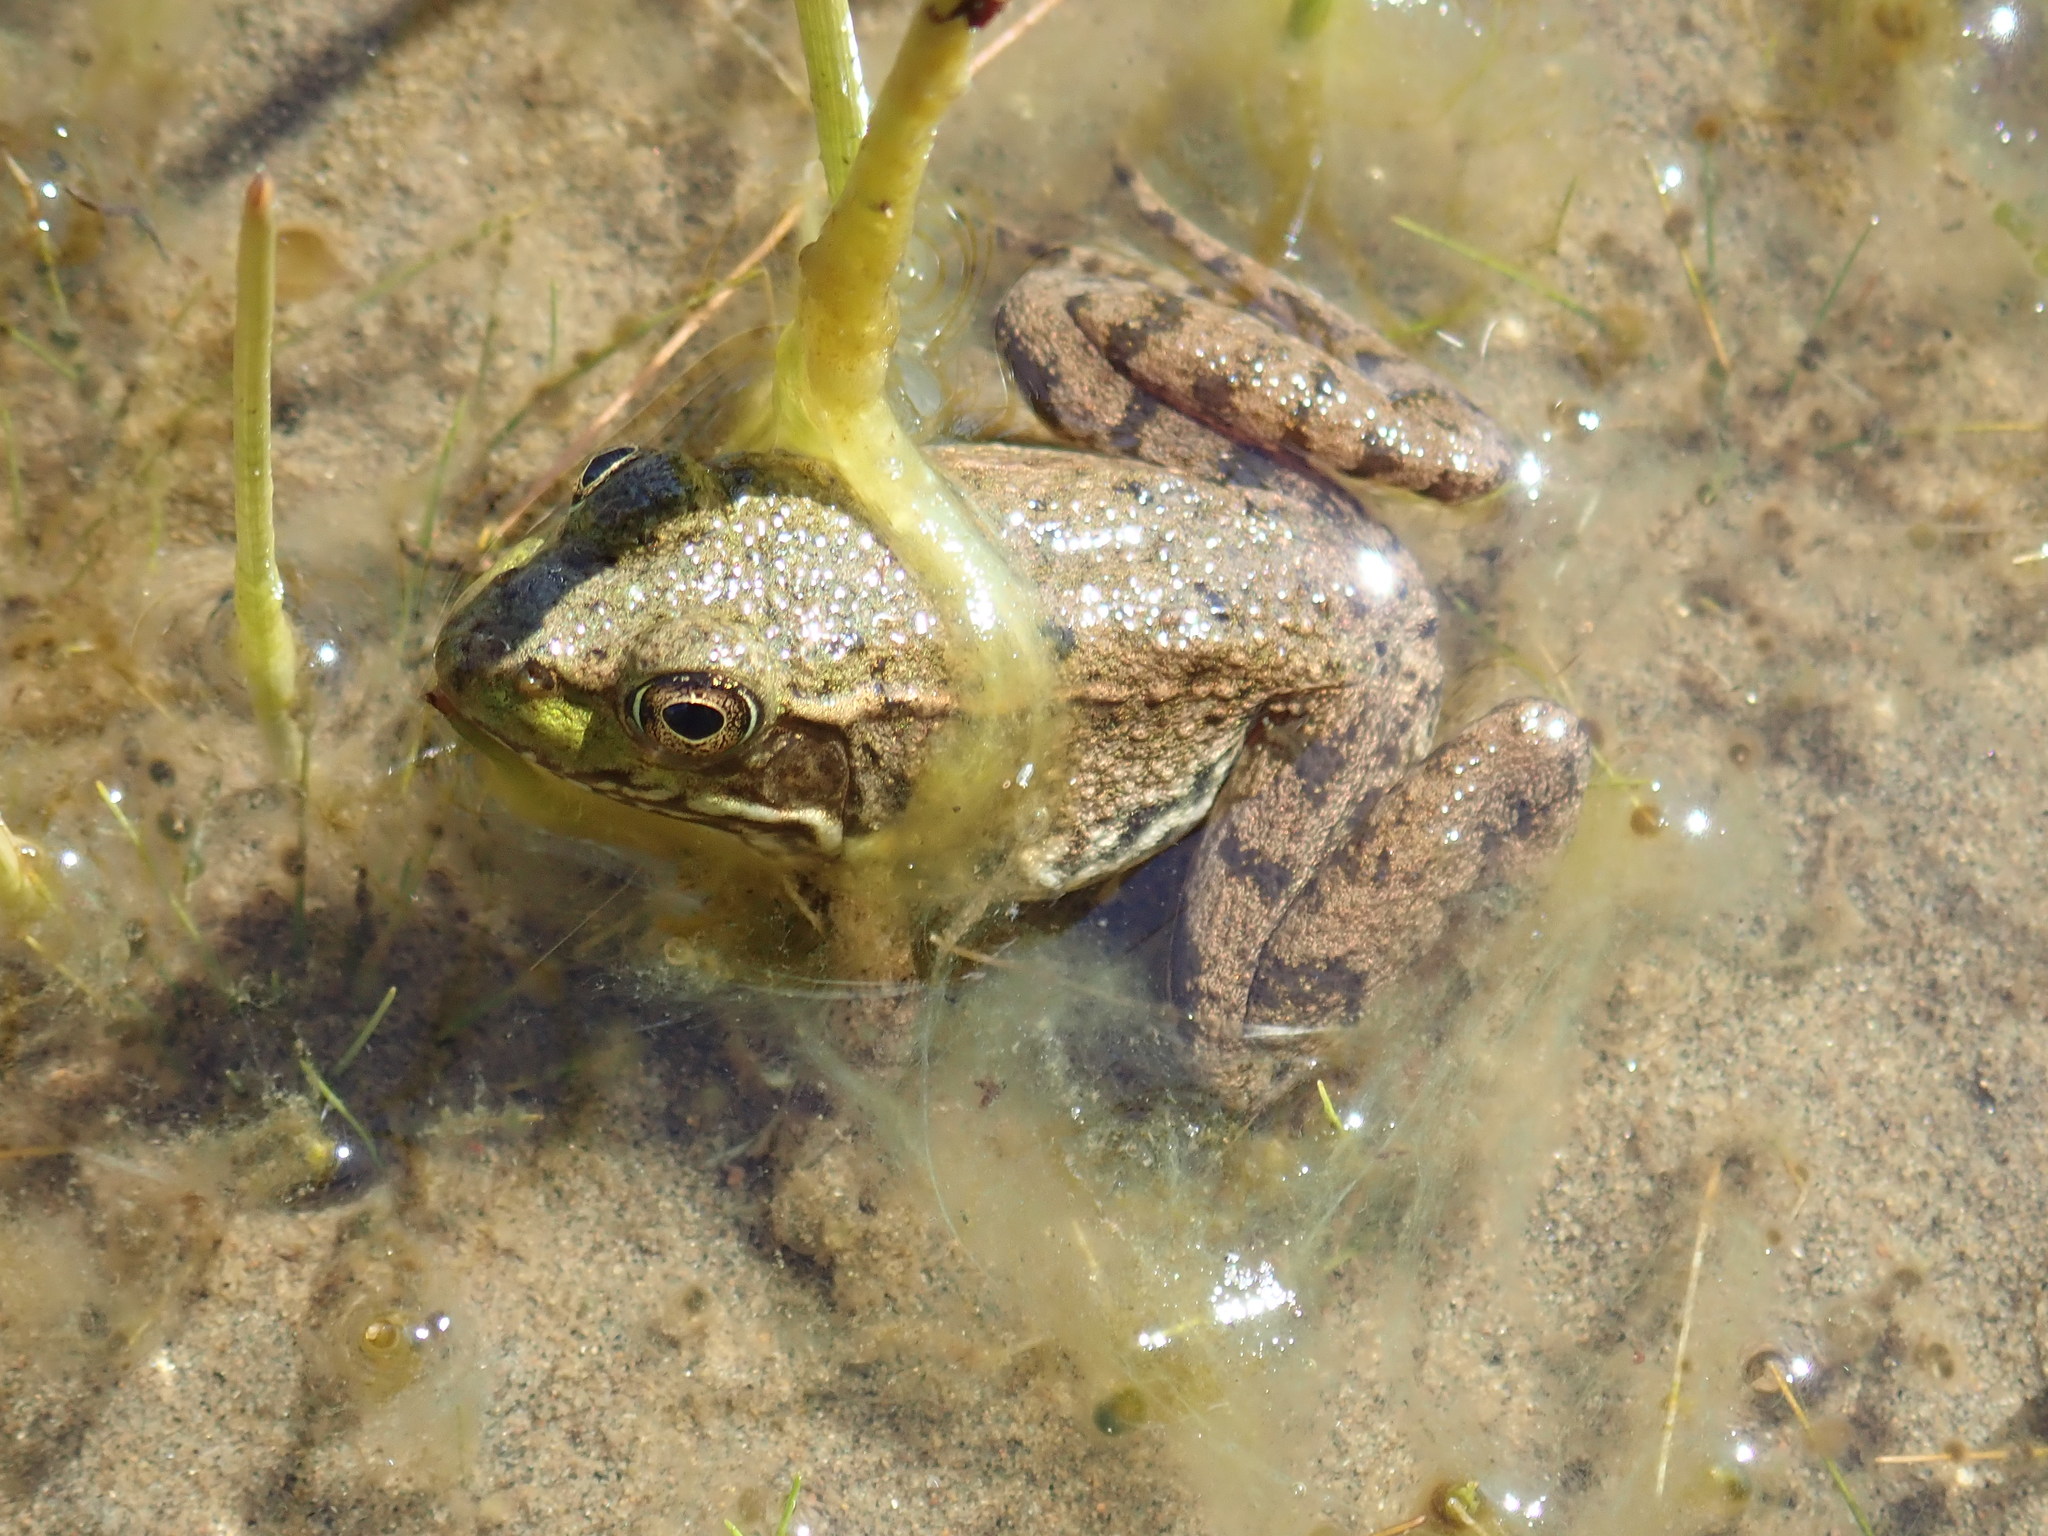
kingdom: Animalia
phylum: Chordata
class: Amphibia
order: Anura
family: Ranidae
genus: Lithobates
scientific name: Lithobates clamitans
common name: Green frog
